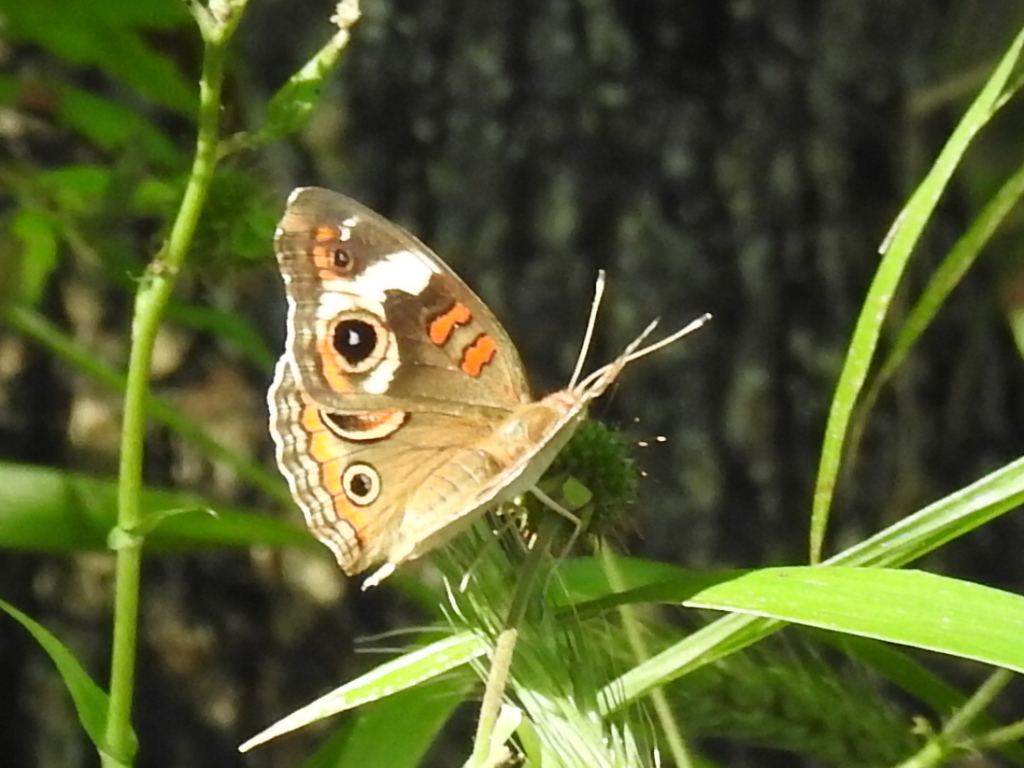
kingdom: Animalia
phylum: Arthropoda
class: Insecta
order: Lepidoptera
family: Nymphalidae
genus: Junonia
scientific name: Junonia coenia
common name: Common buckeye
